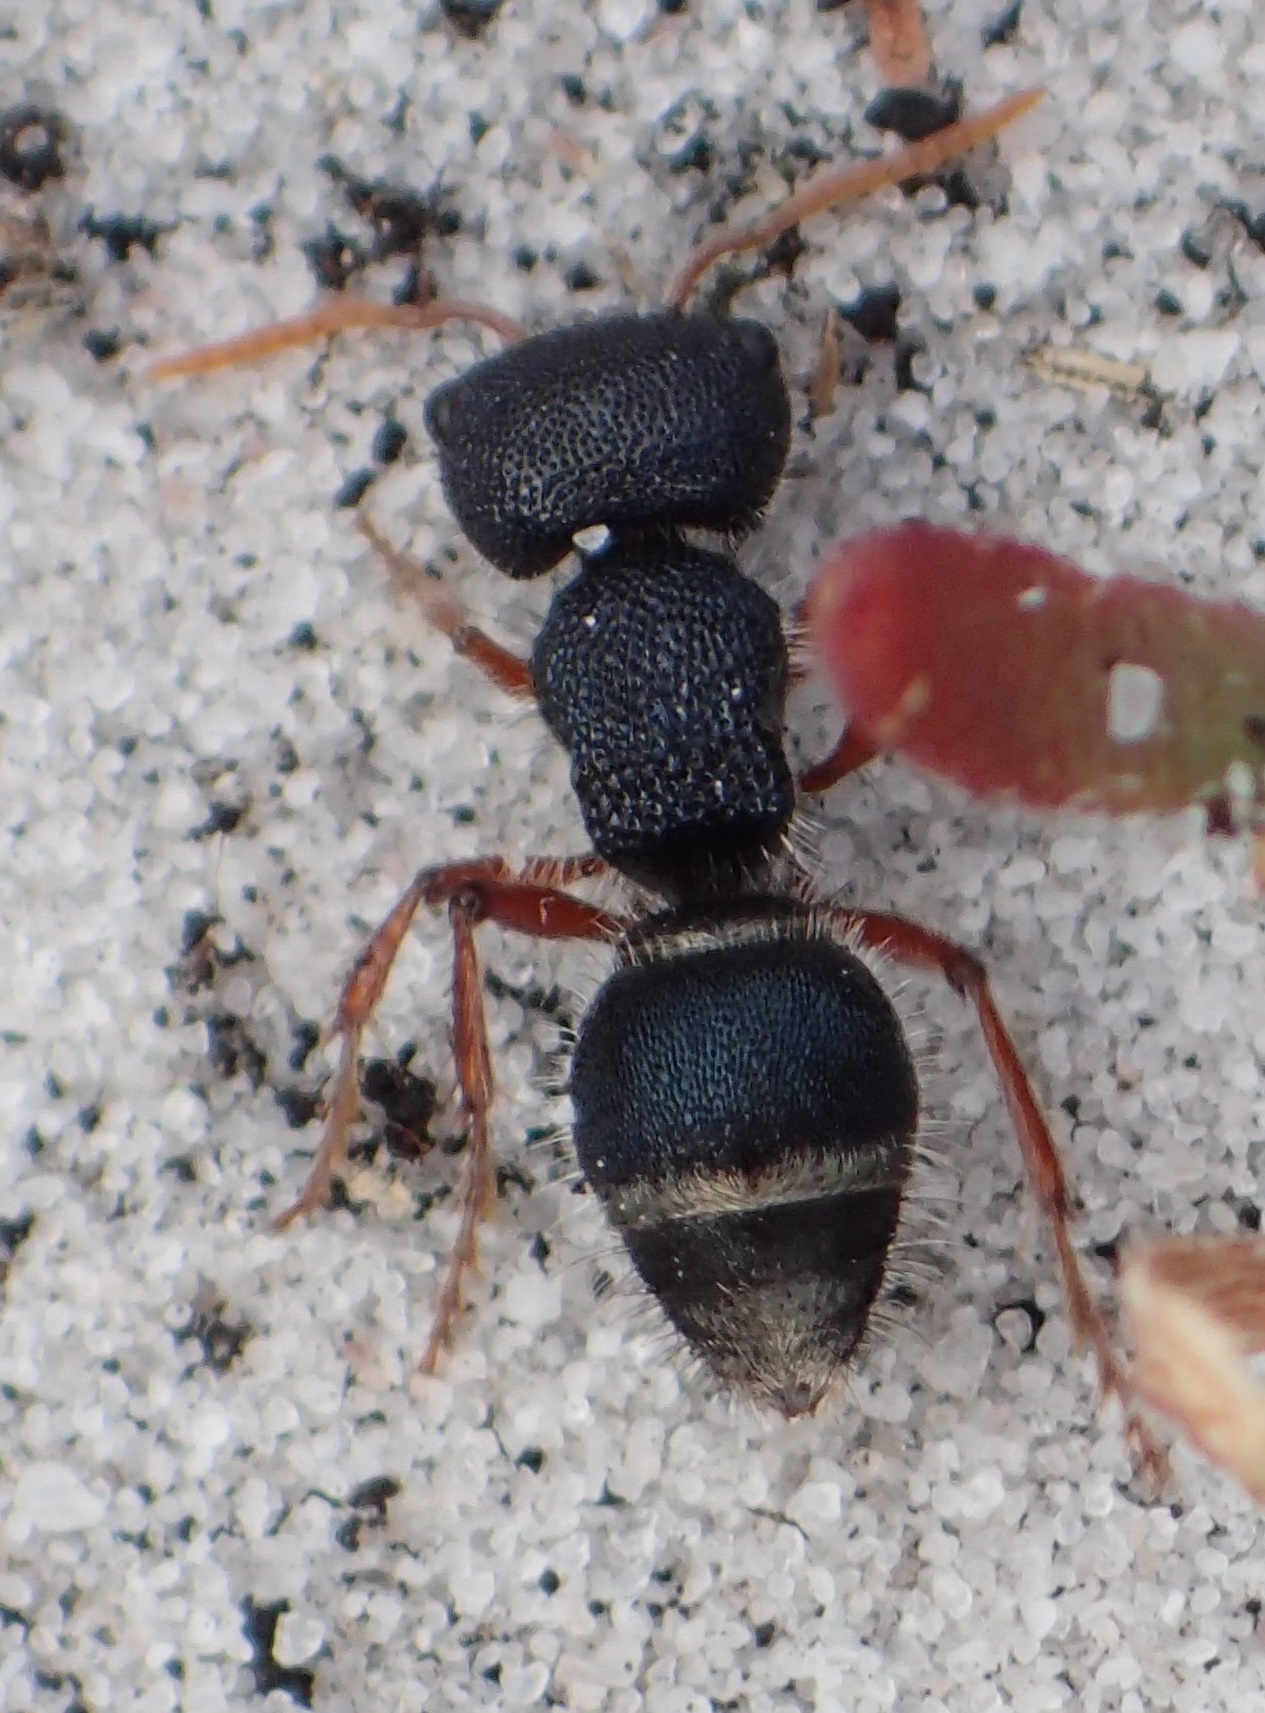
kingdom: Animalia
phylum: Arthropoda
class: Insecta
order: Hymenoptera
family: Mutillidae
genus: Ephutomorpha
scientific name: Ephutomorpha
